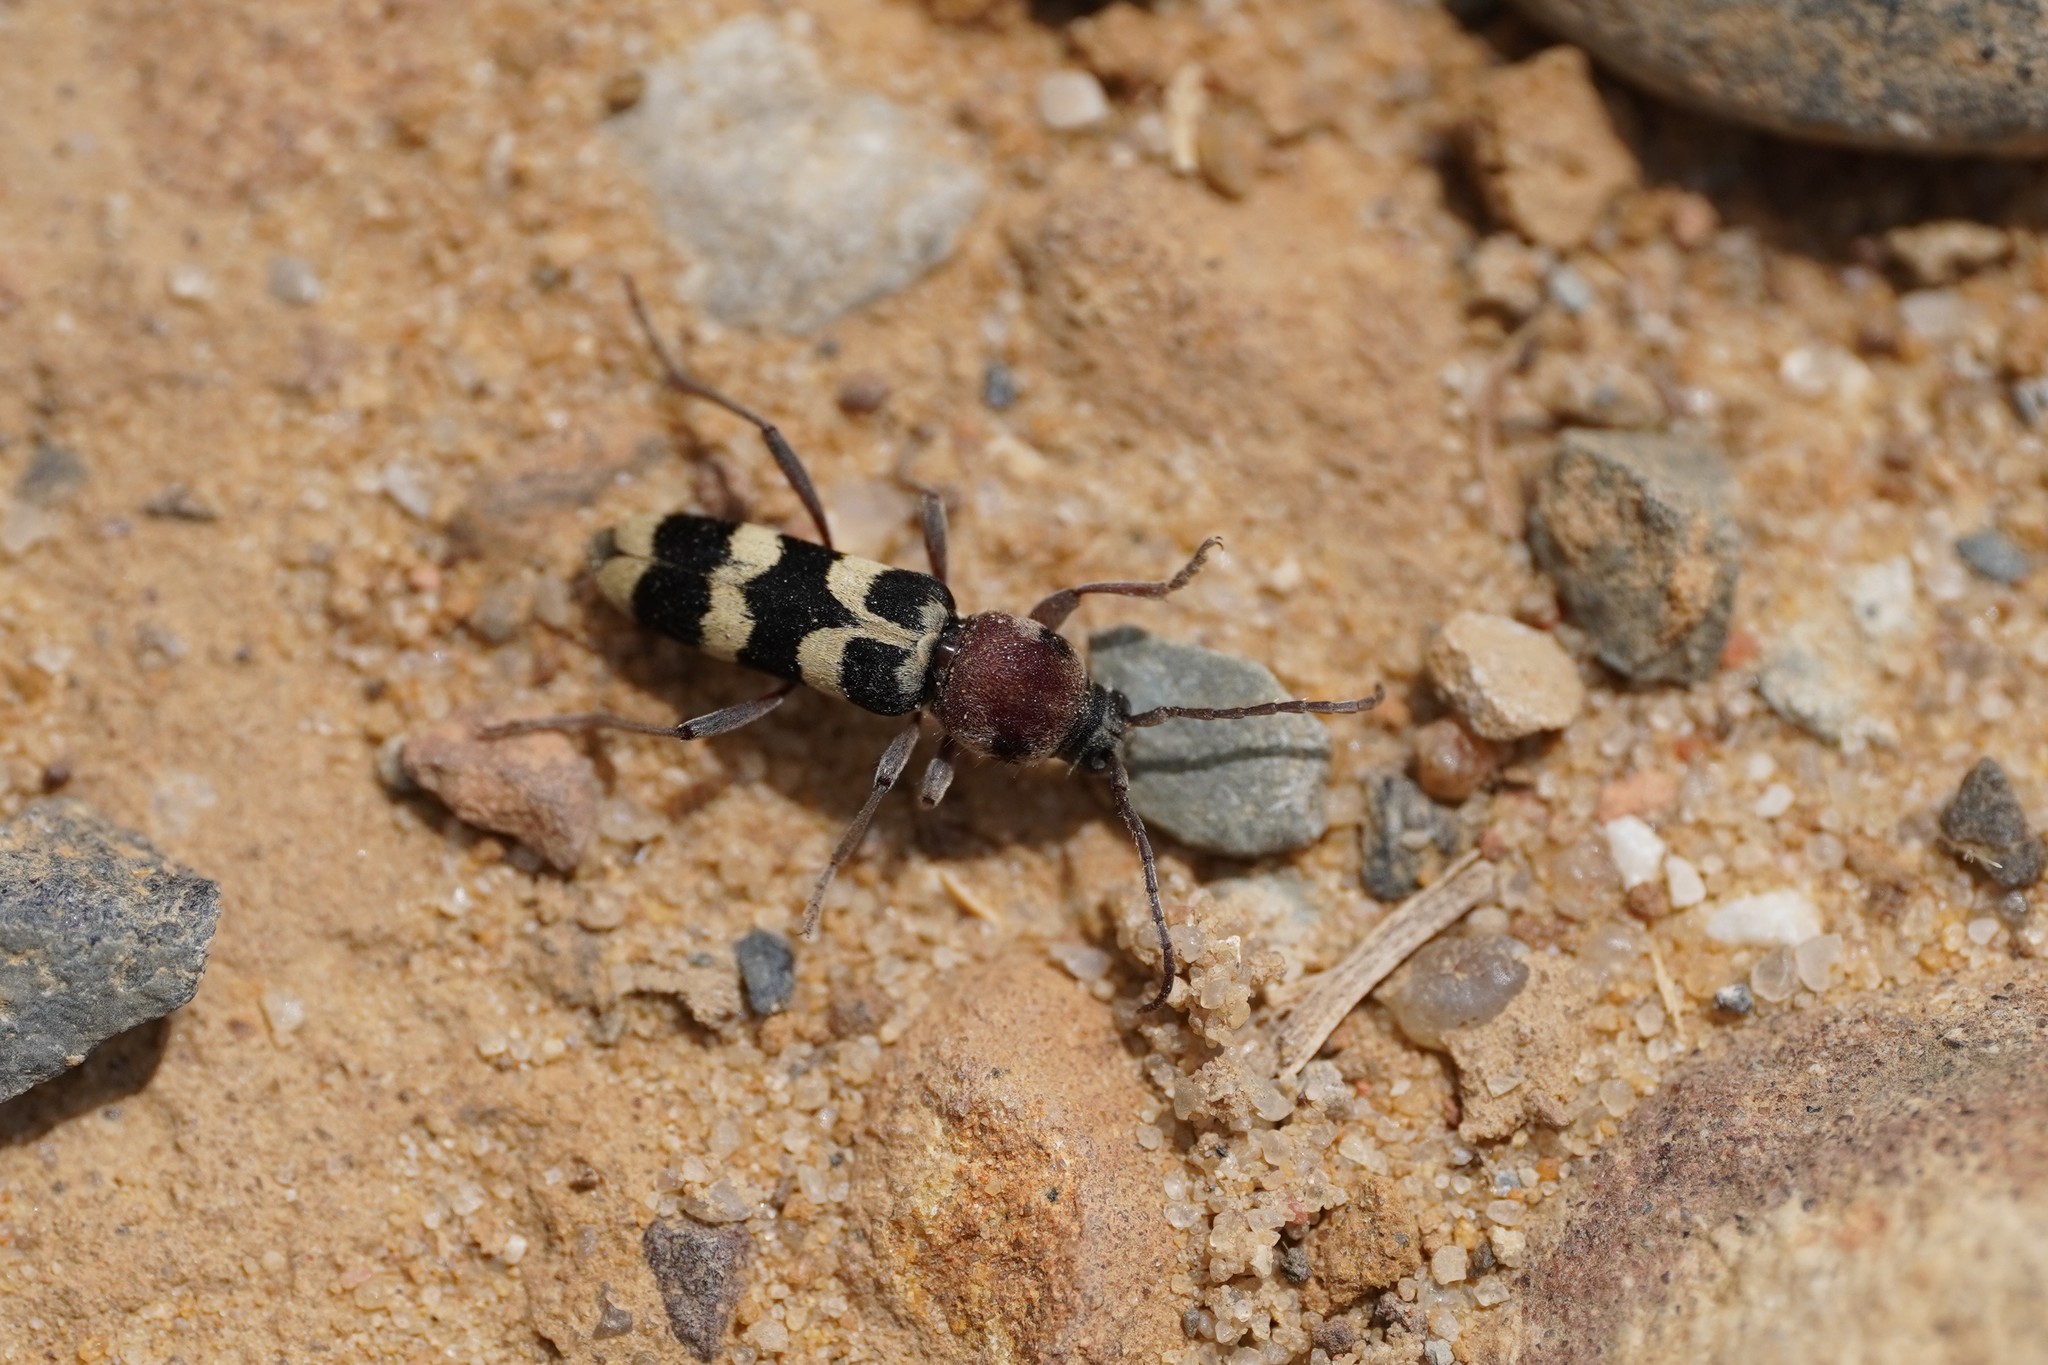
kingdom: Animalia
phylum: Arthropoda
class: Insecta
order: Coleoptera
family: Cerambycidae
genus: Chlorophorus
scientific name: Chlorophorus trifasciatus
